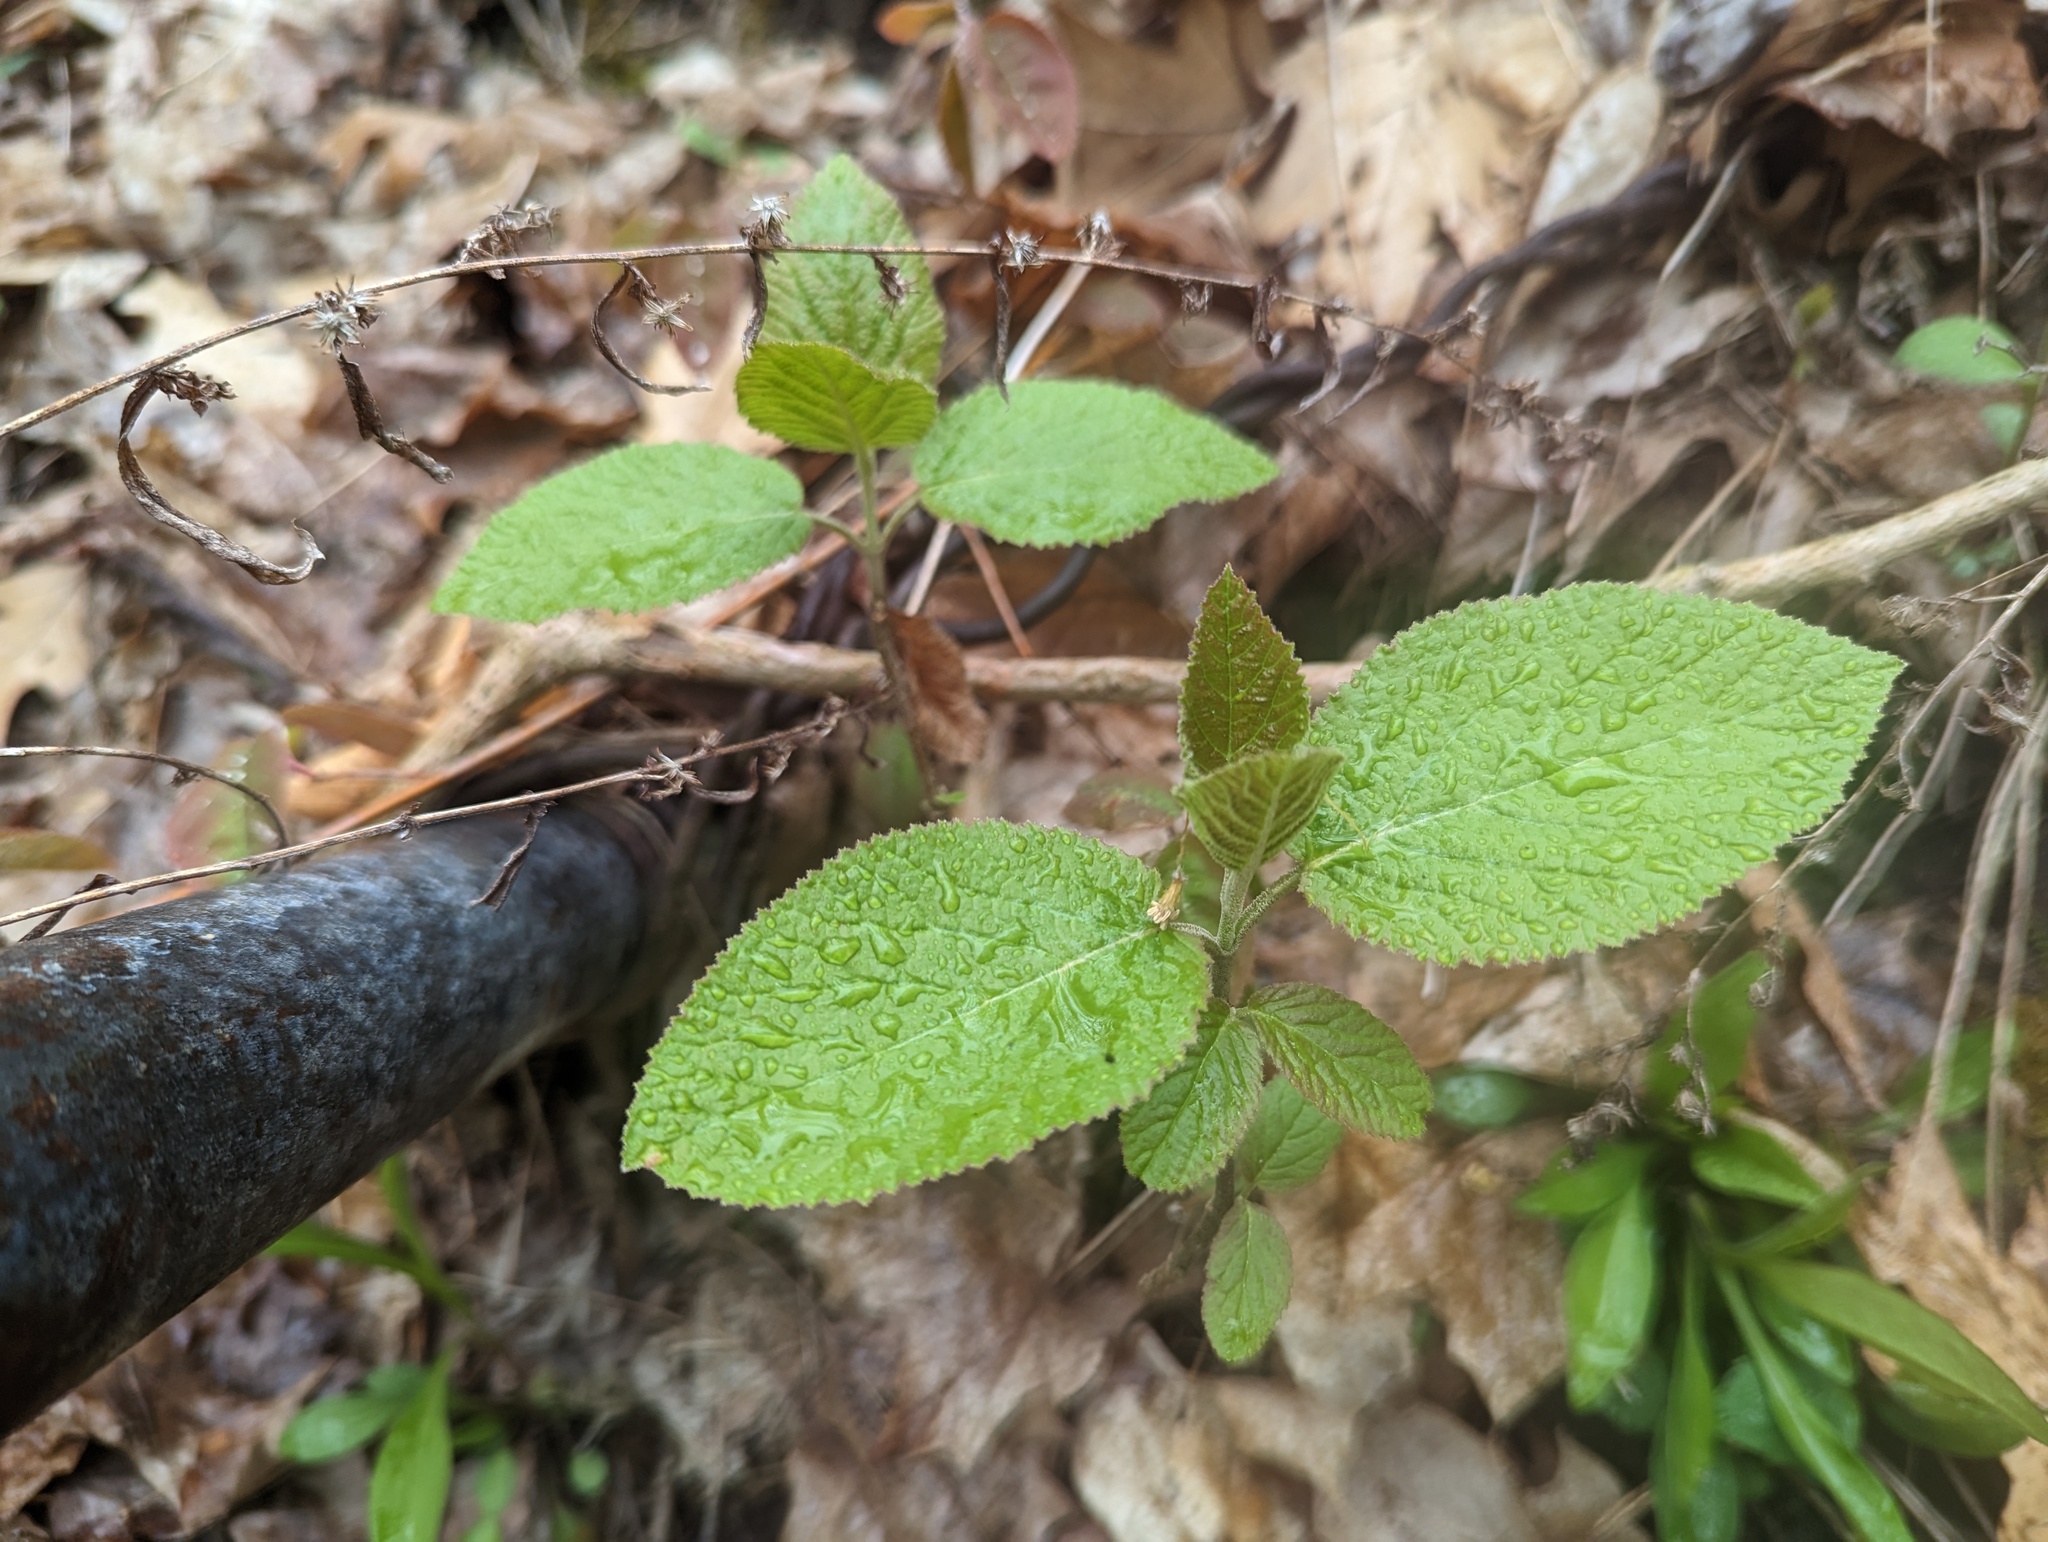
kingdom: Plantae
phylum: Tracheophyta
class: Magnoliopsida
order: Dipsacales
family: Viburnaceae
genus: Viburnum
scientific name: Viburnum lantana
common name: Wayfaring tree
